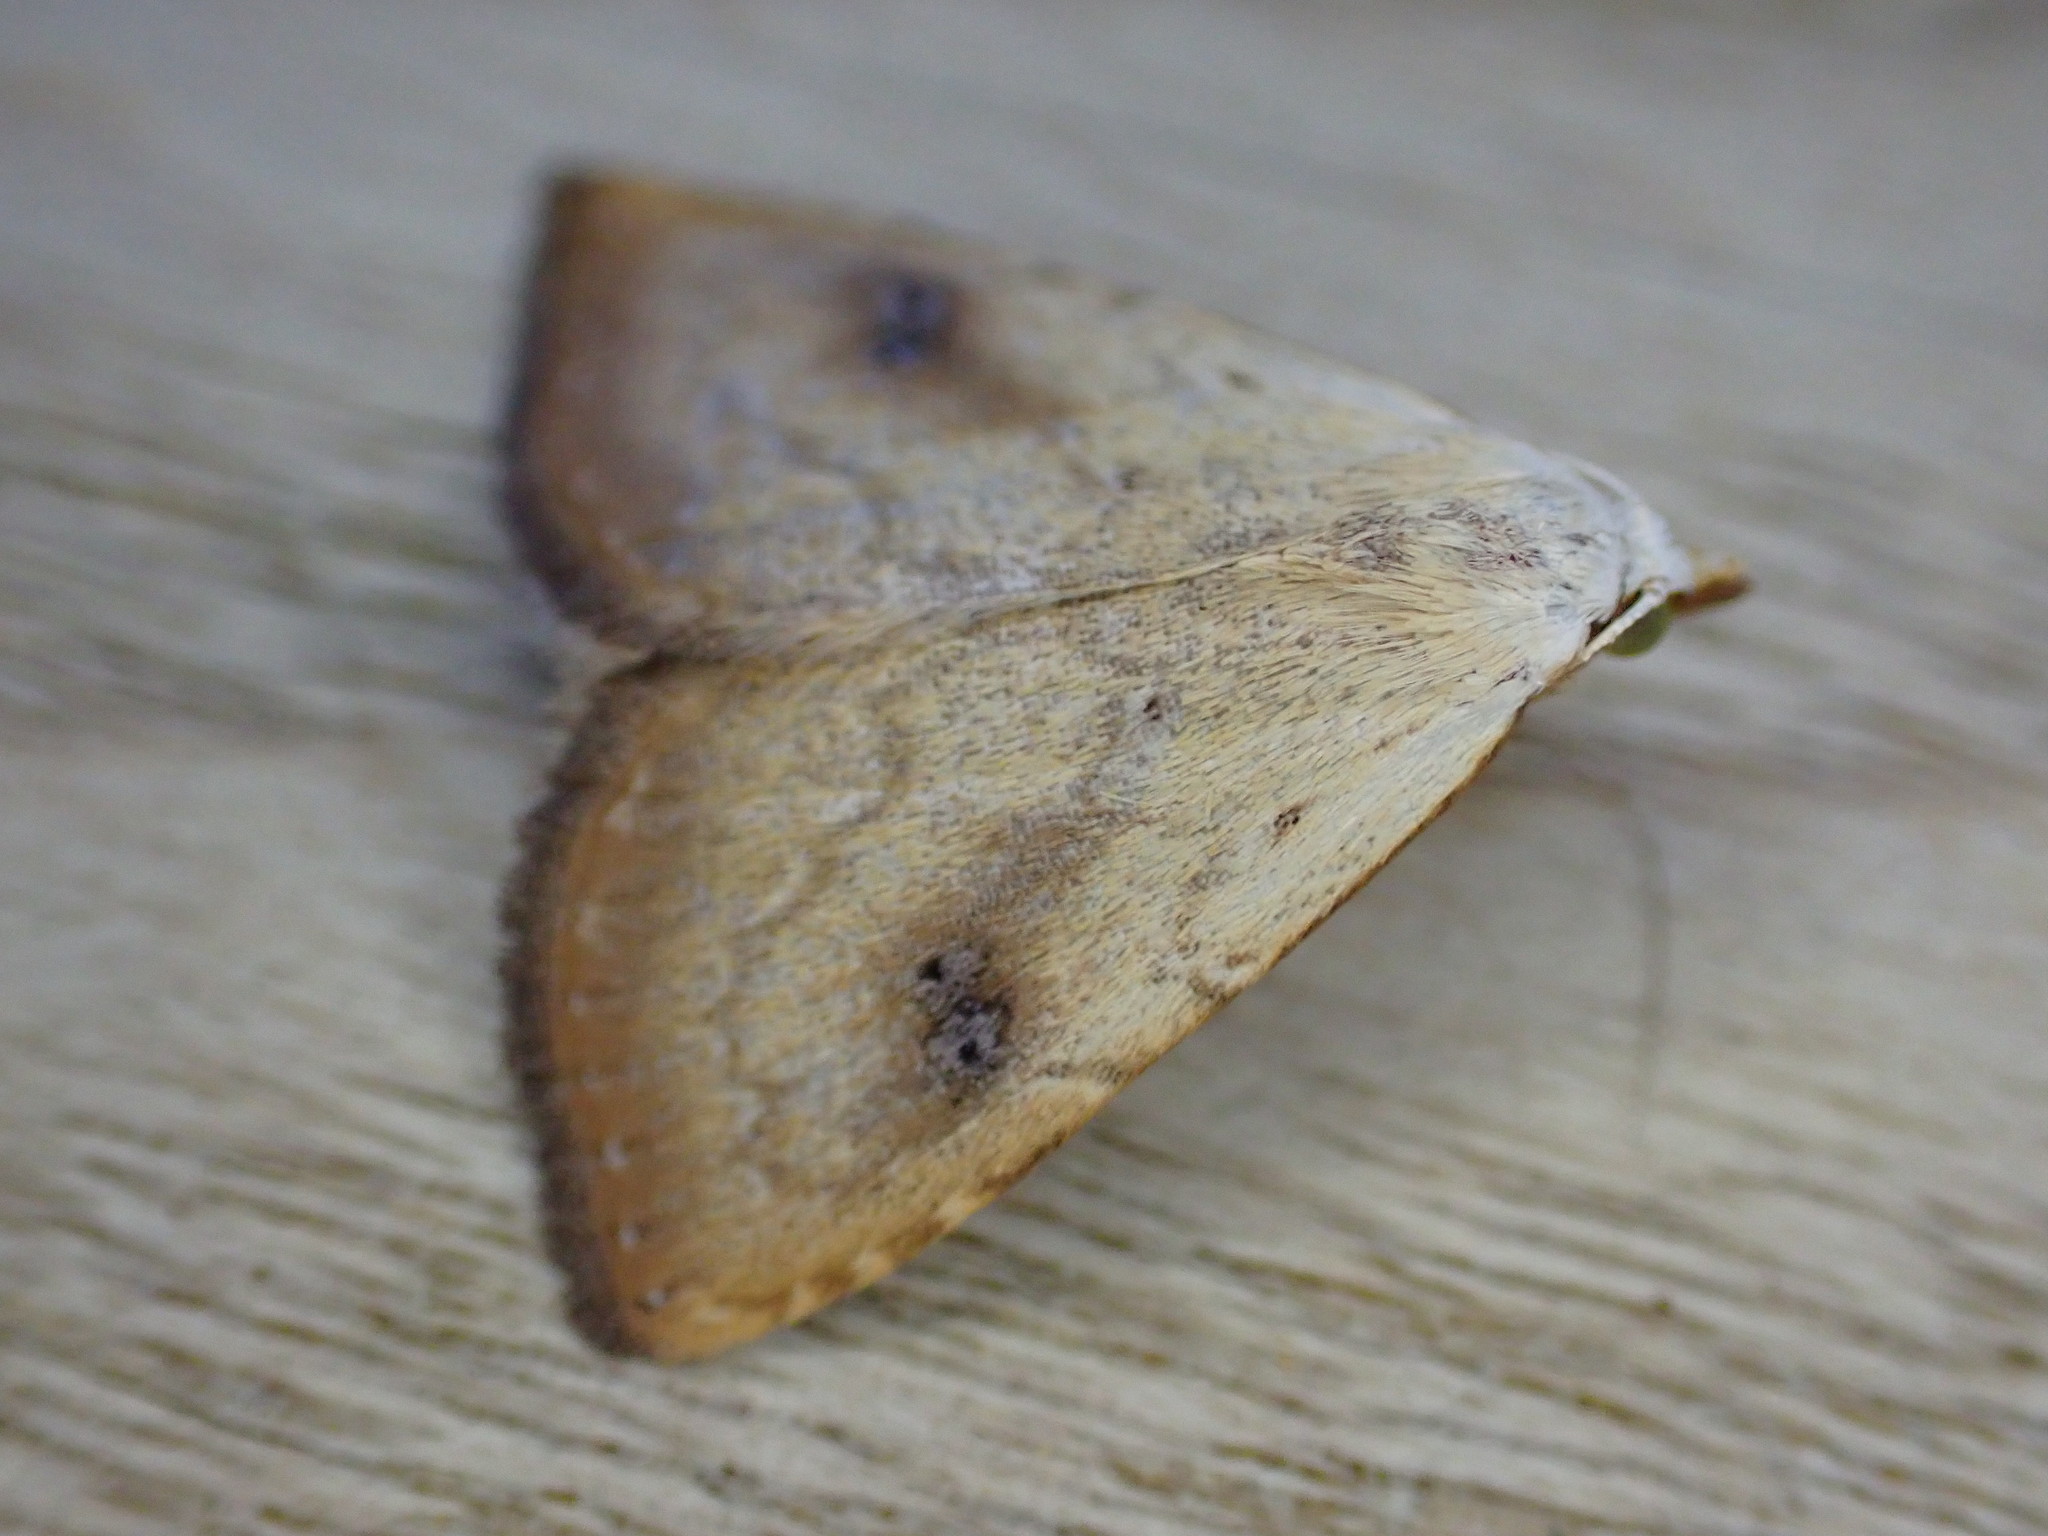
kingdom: Animalia
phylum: Arthropoda
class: Insecta
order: Lepidoptera
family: Erebidae
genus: Rivula
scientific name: Rivula sericealis
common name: Straw dot
